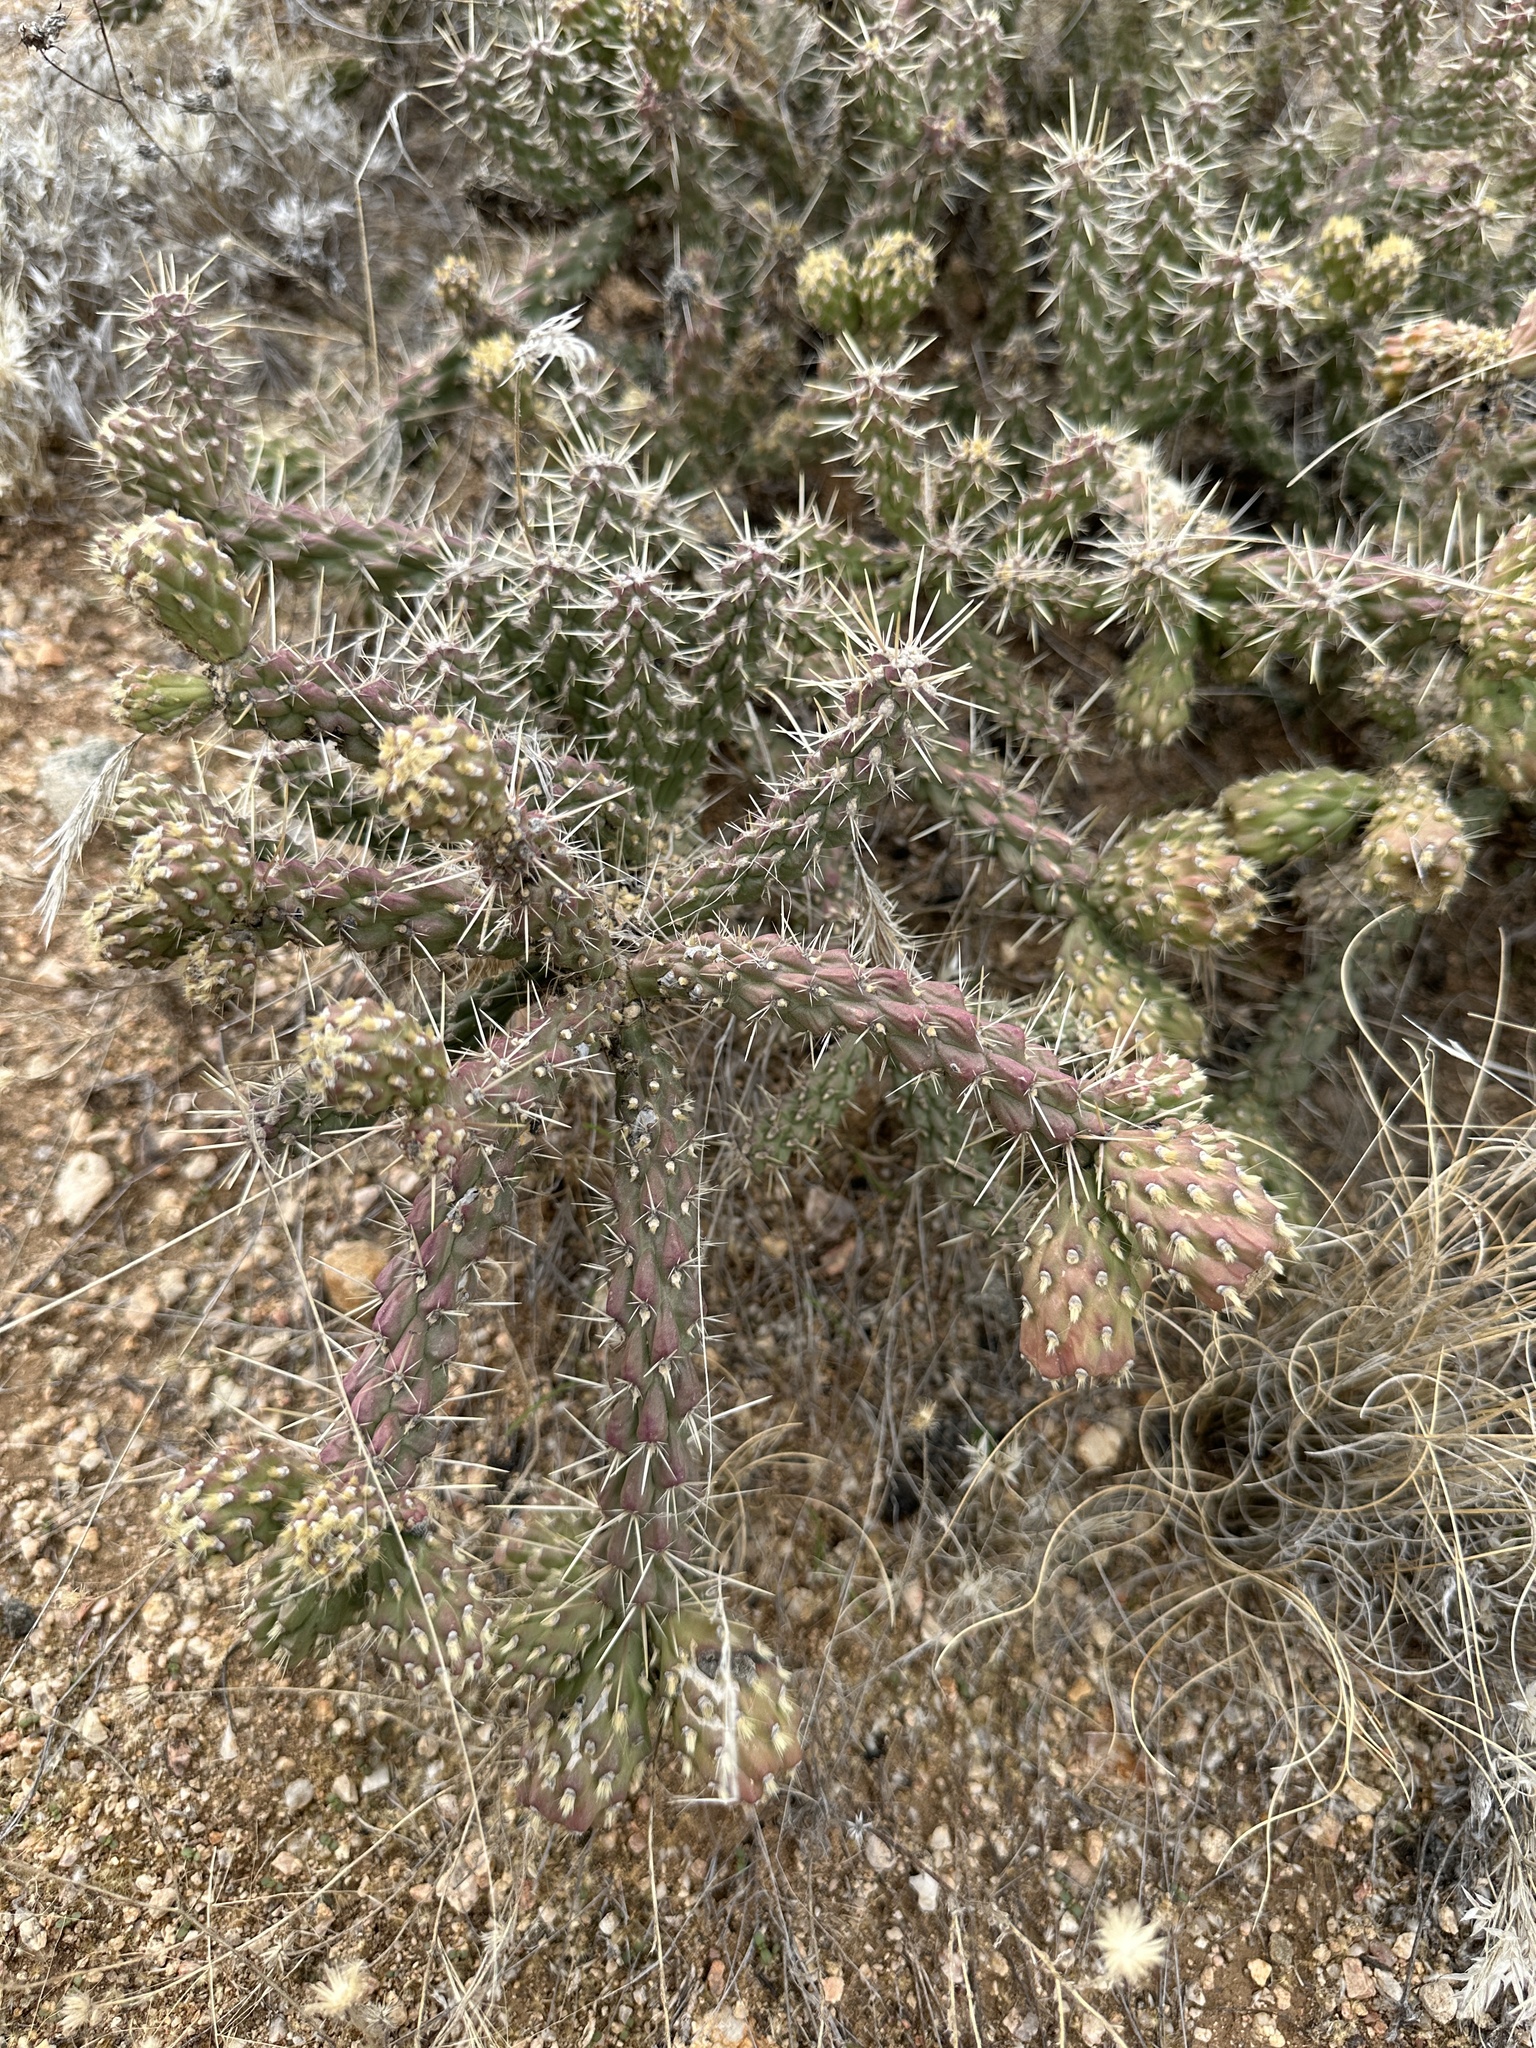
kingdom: Plantae
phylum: Tracheophyta
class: Magnoliopsida
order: Caryophyllales
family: Cactaceae
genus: Cylindropuntia
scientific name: Cylindropuntia whipplei
